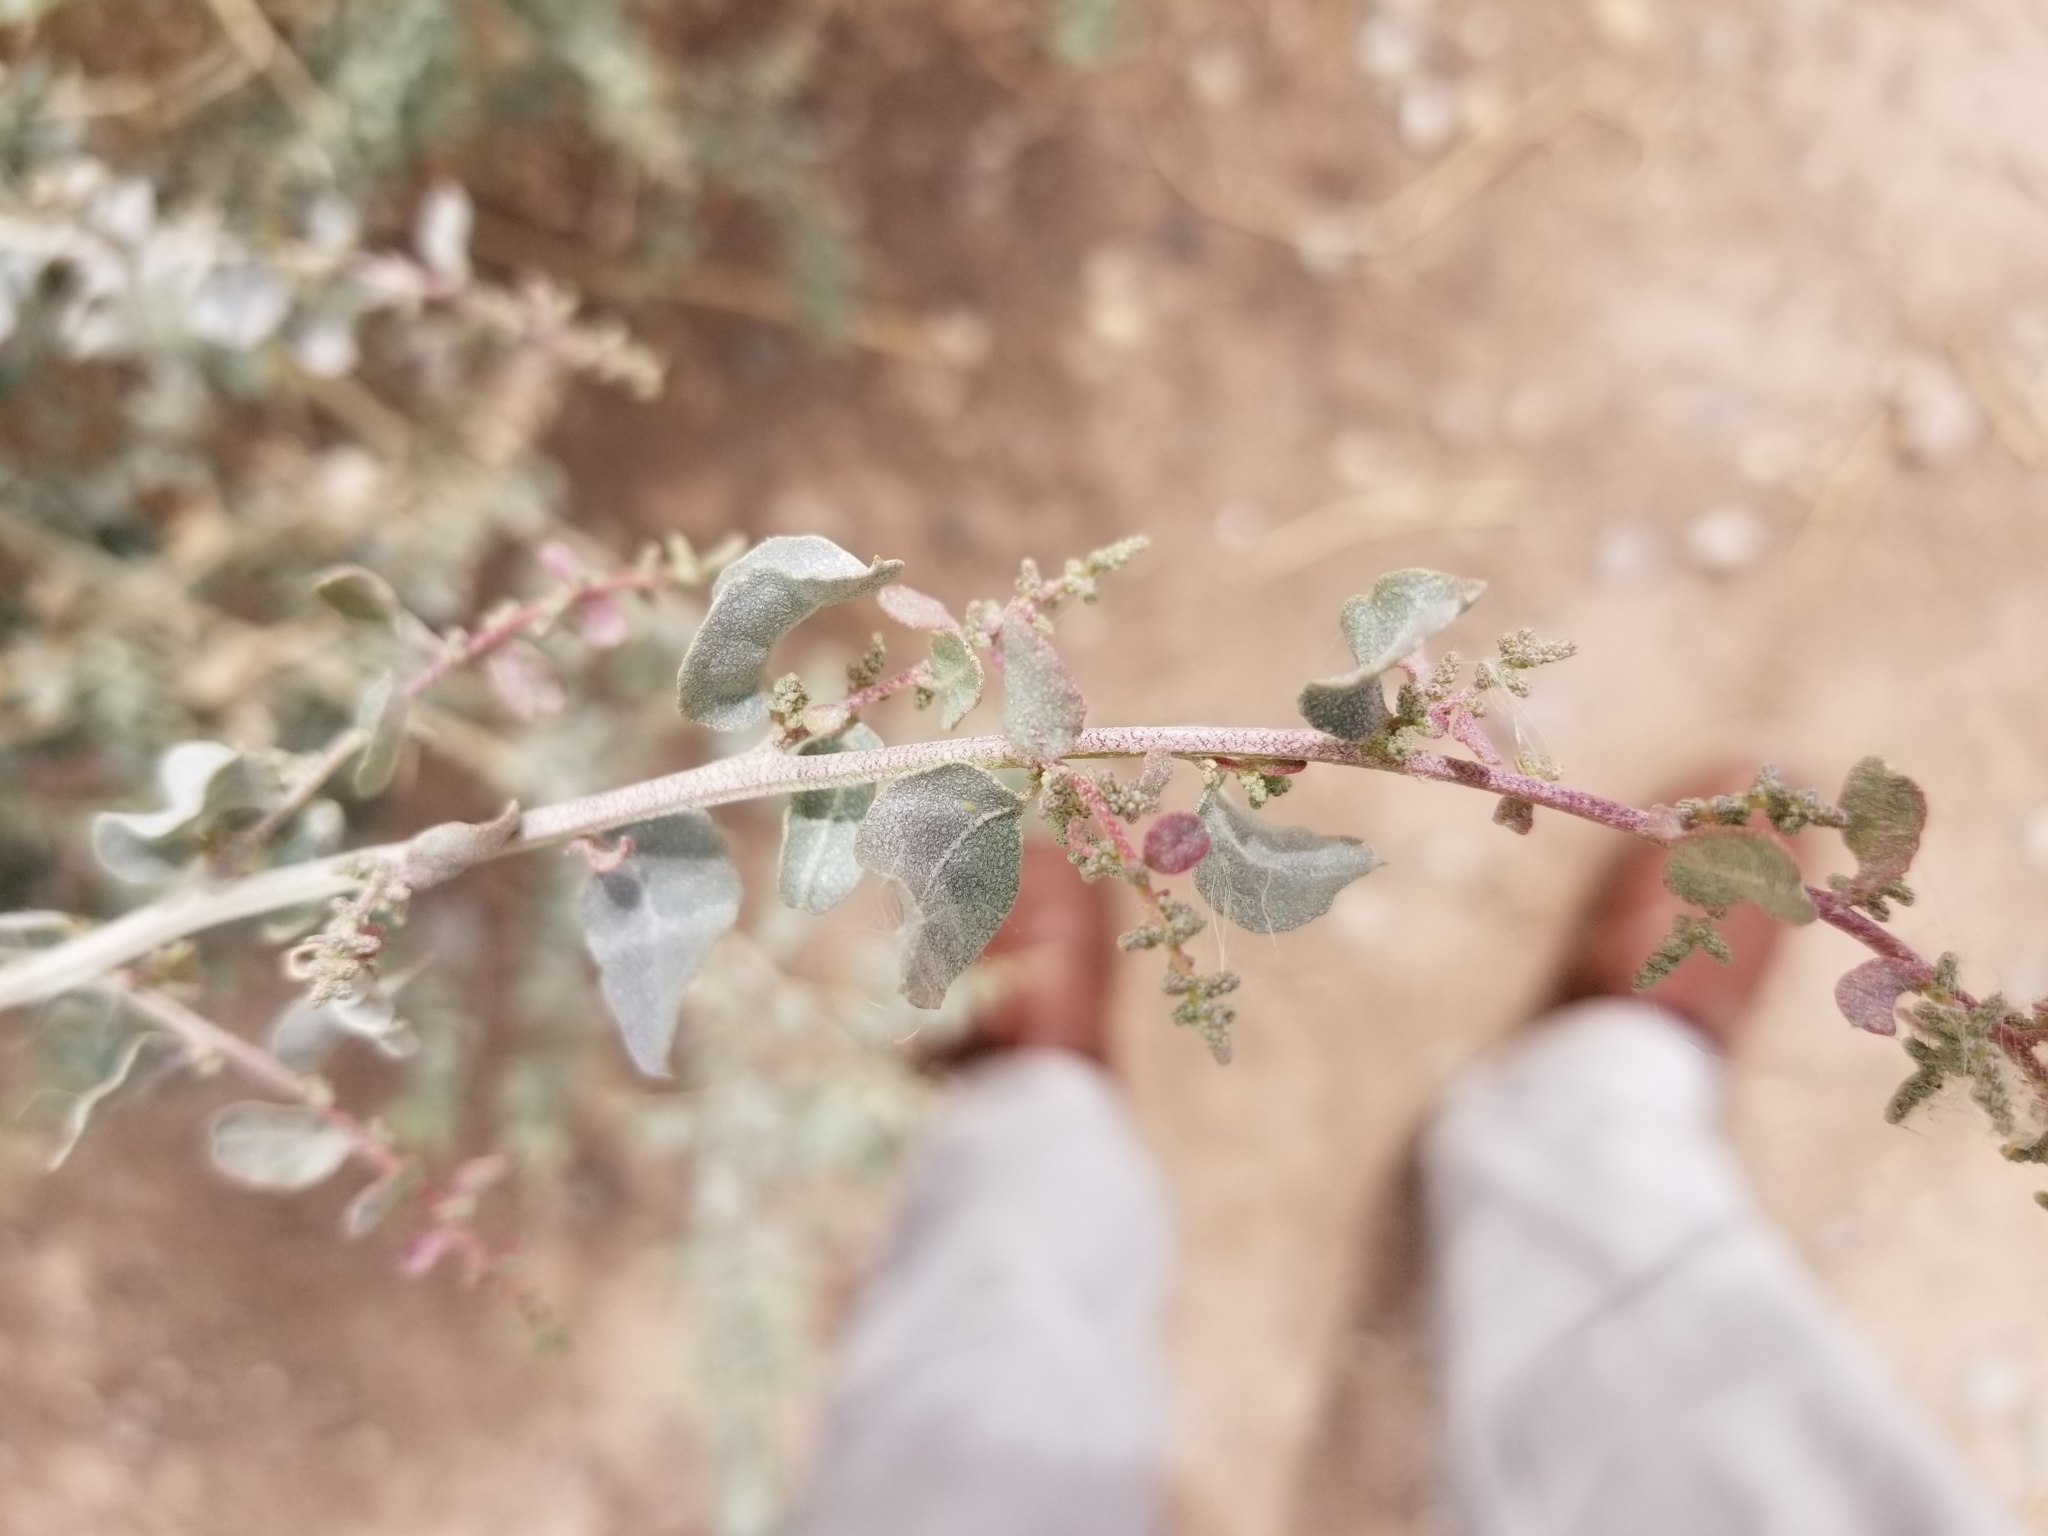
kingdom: Plantae
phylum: Tracheophyta
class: Magnoliopsida
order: Caryophyllales
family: Amaranthaceae
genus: Atriplex
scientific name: Atriplex lentiformis
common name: Big saltbush
